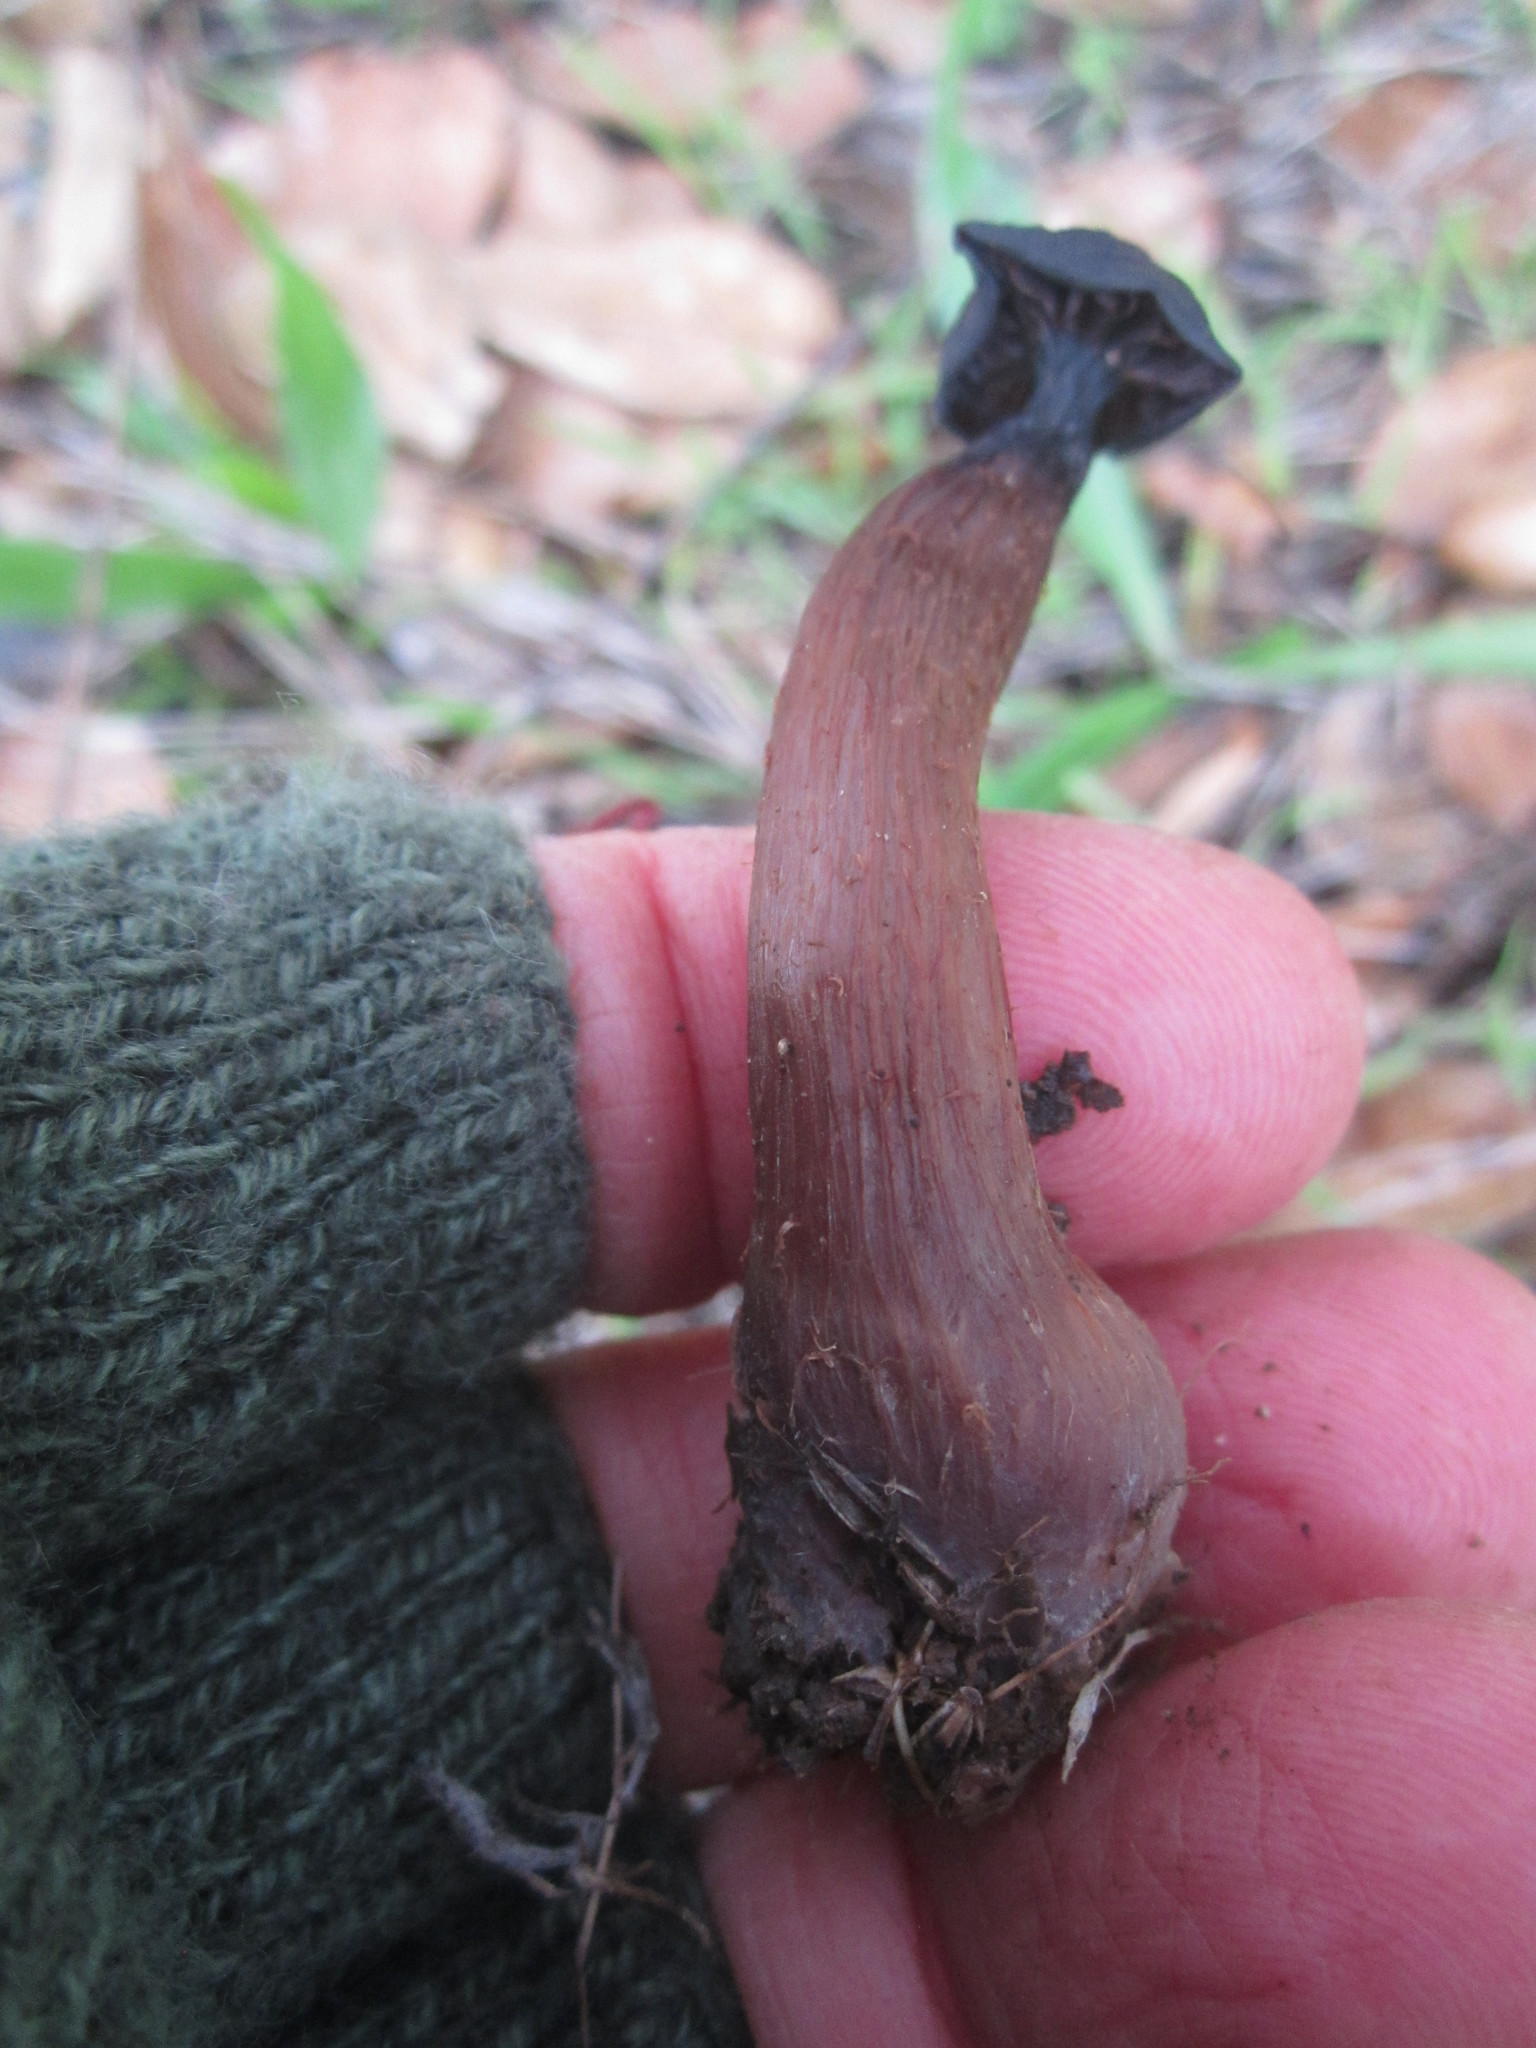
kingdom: Fungi
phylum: Basidiomycota
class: Agaricomycetes
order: Agaricales
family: Hydnangiaceae
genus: Laccaria
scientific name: Laccaria amethysteo-occidentalis
